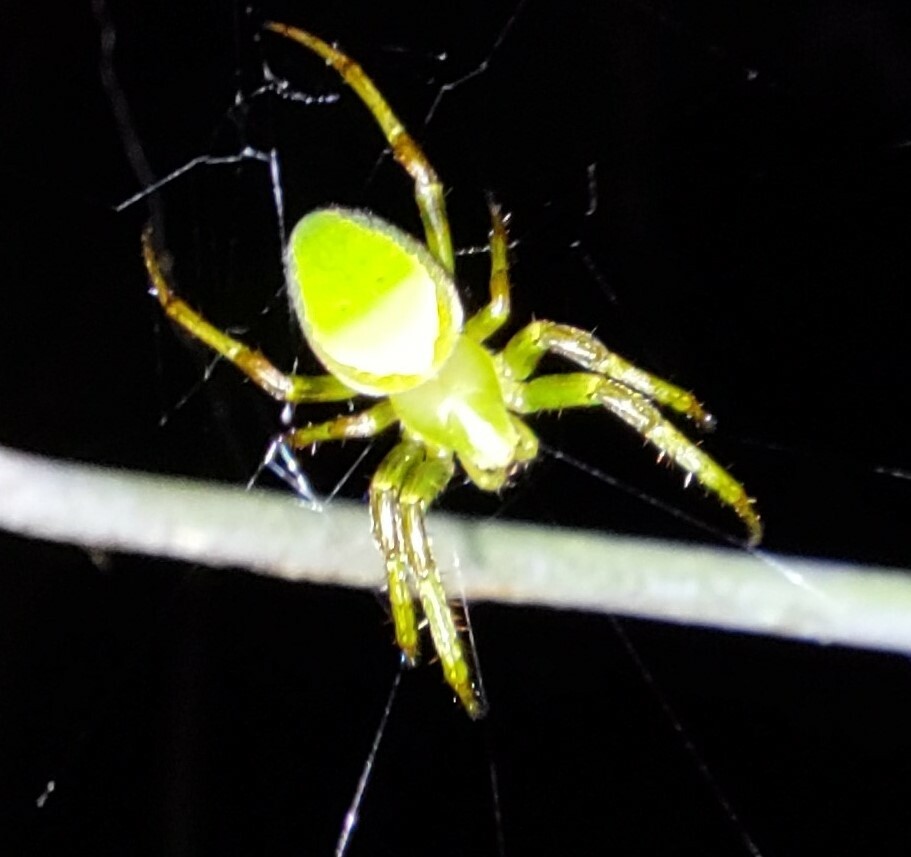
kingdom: Animalia
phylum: Arthropoda
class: Arachnida
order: Araneae
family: Araneidae
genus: Colaranea
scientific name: Colaranea viriditas
